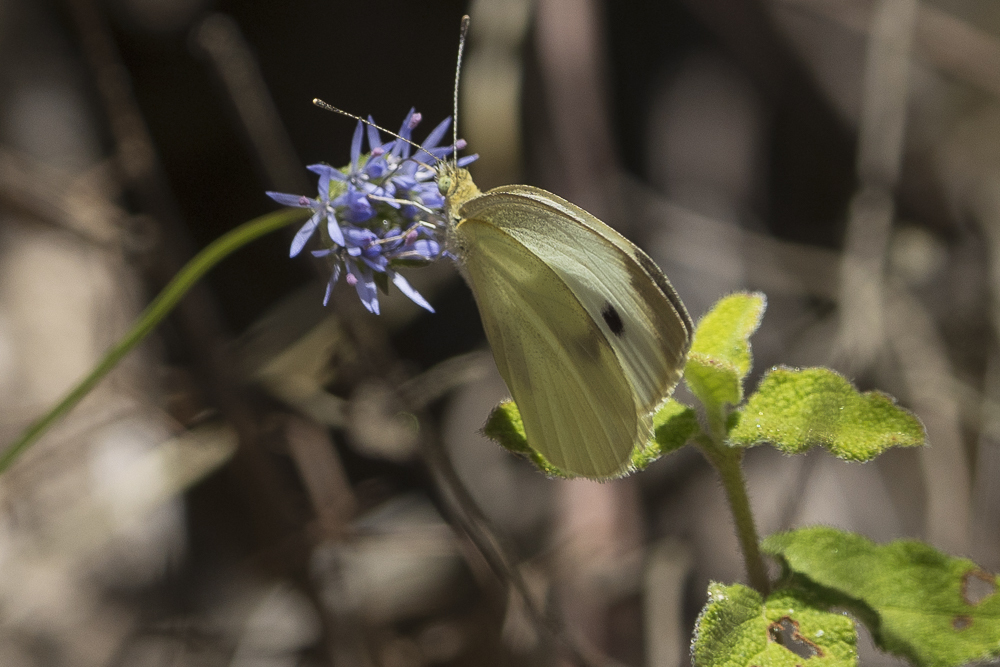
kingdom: Animalia
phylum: Arthropoda
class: Insecta
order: Lepidoptera
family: Pieridae
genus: Pieris
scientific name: Pieris rapae
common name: Small white
